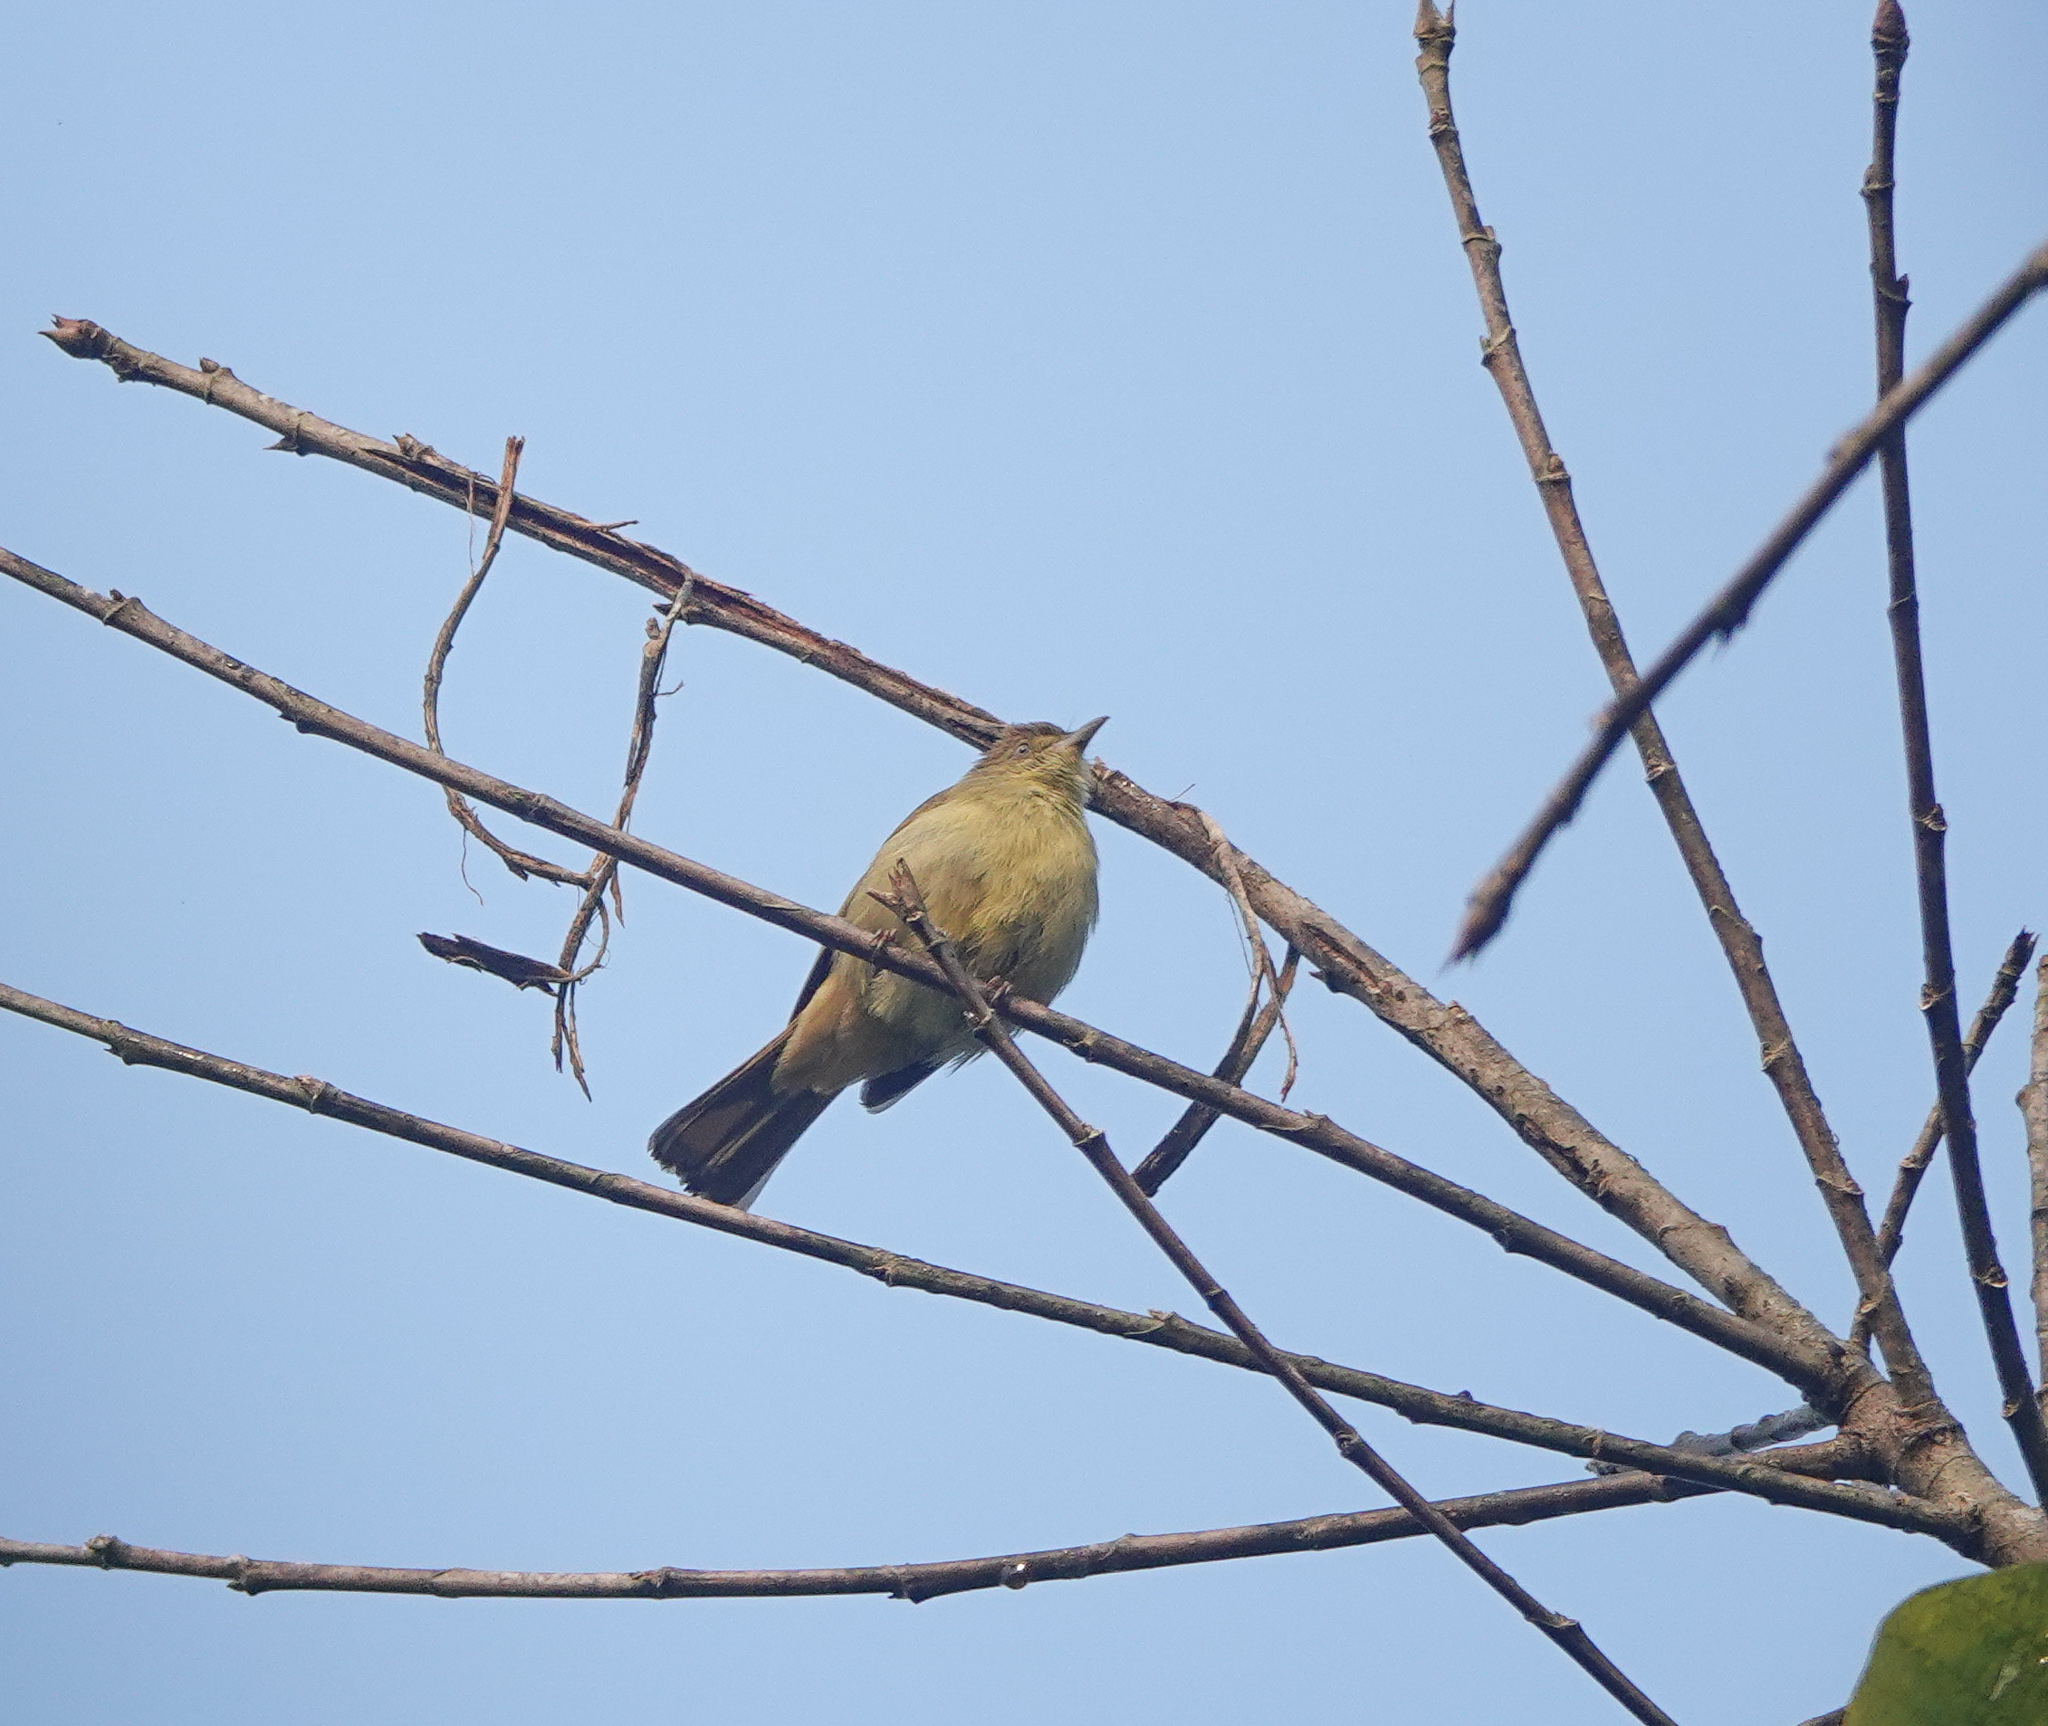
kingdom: Animalia
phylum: Chordata
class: Aves
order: Passeriformes
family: Pycnonotidae
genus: Iole
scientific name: Iole virescens
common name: Olive bulbul
